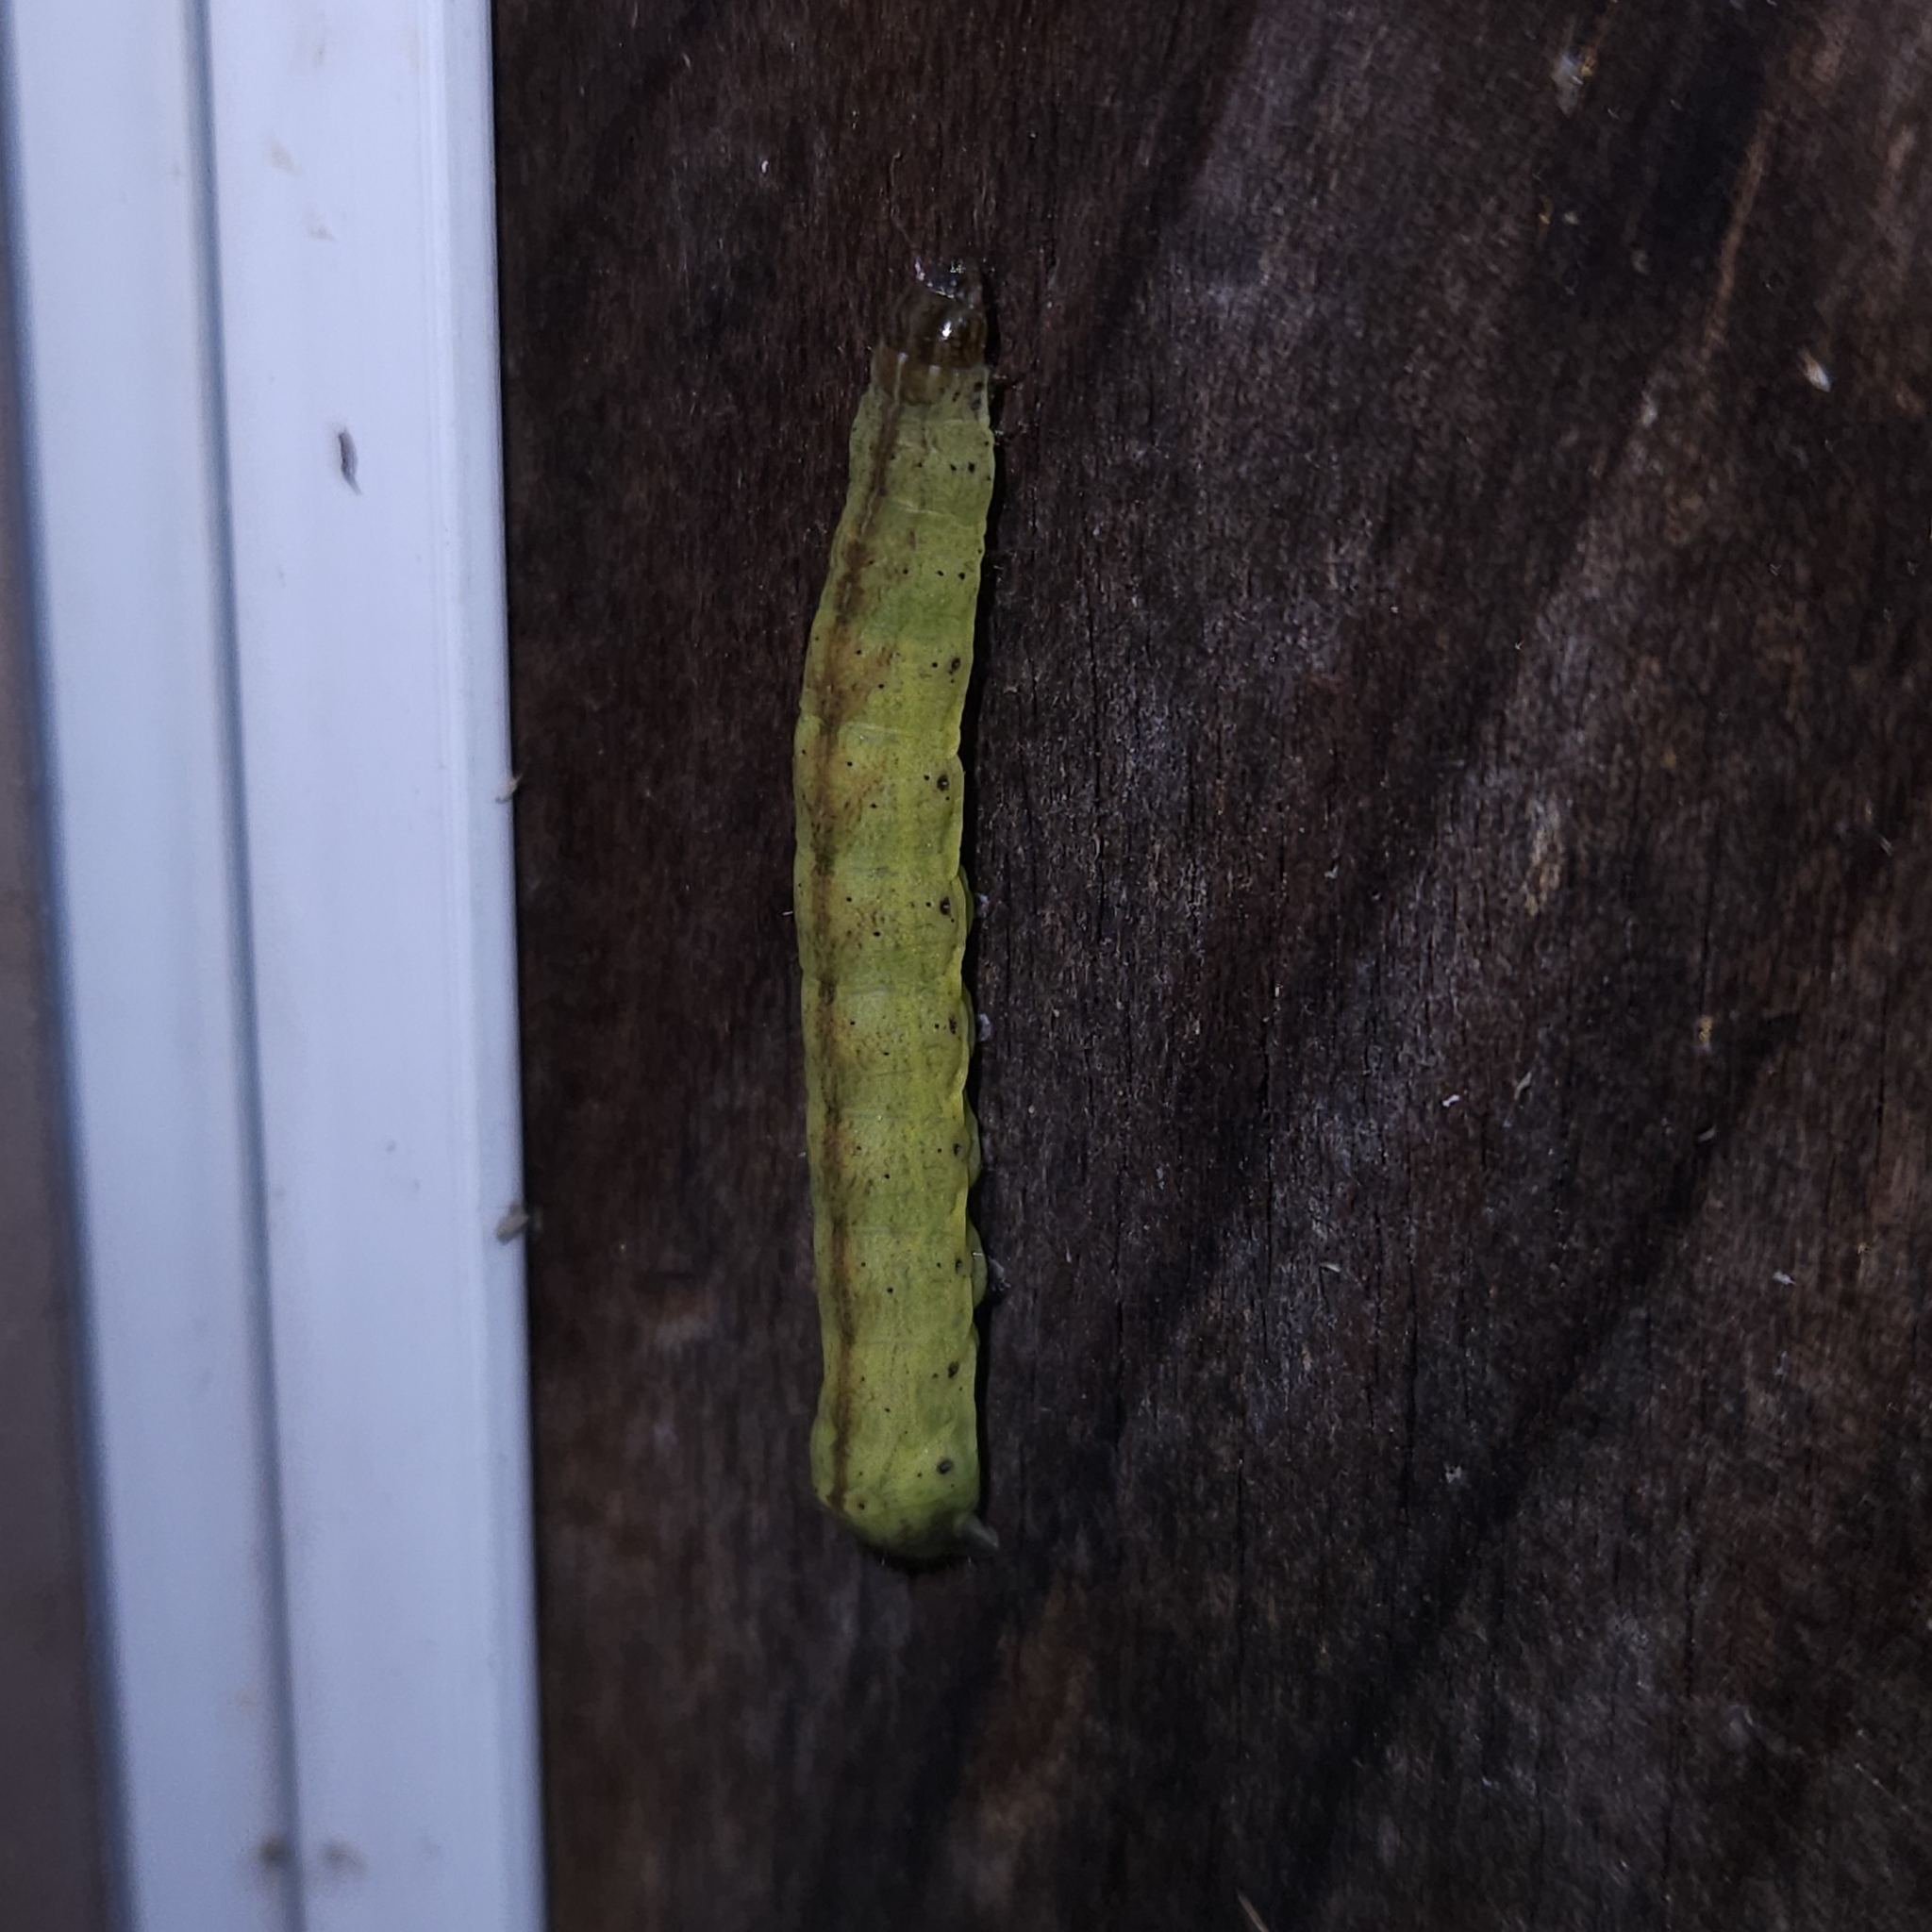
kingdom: Animalia
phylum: Arthropoda
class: Insecta
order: Lepidoptera
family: Noctuidae
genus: Condica
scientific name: Condica vecors
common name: Dusky groundling
